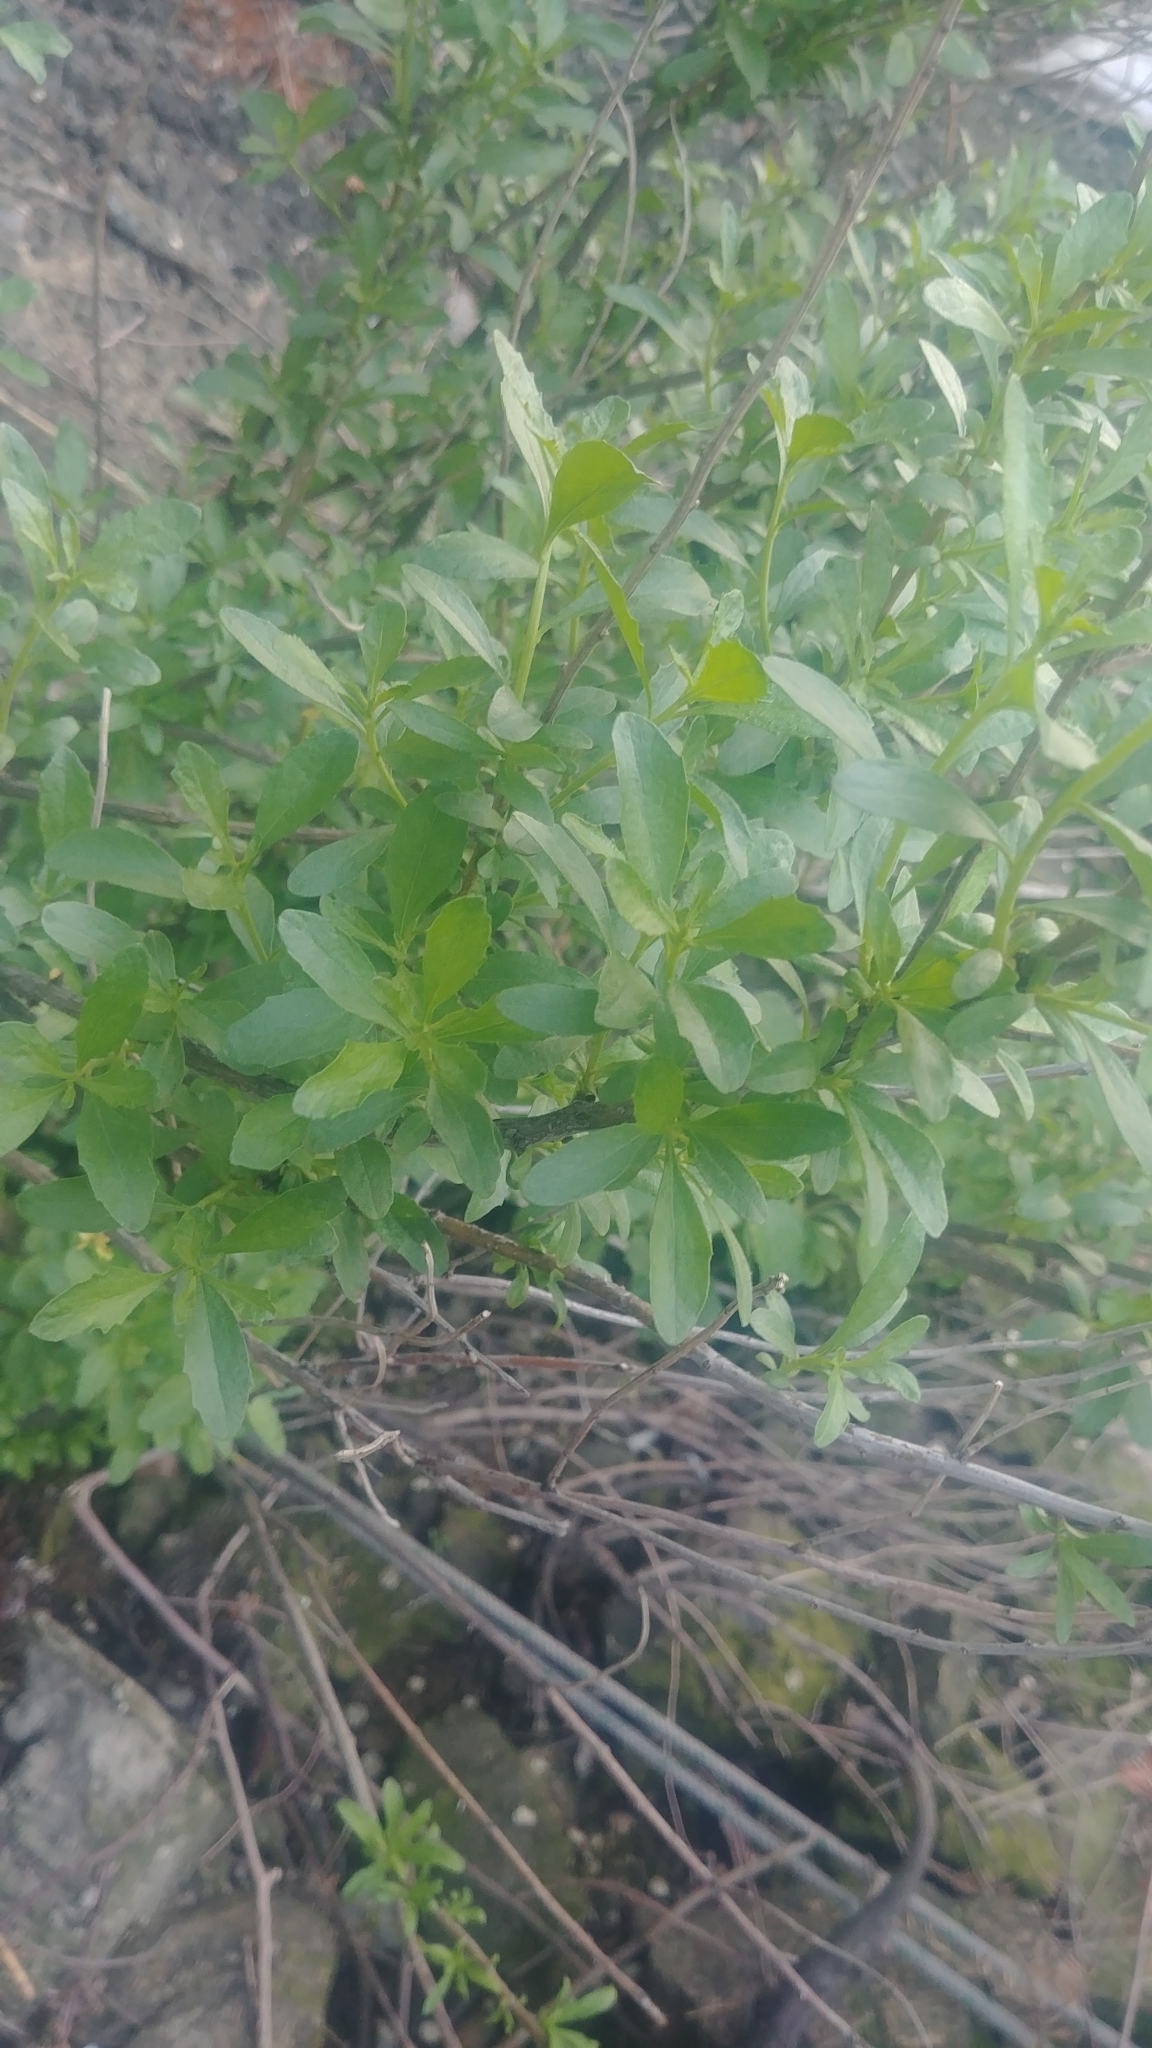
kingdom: Plantae
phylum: Tracheophyta
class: Magnoliopsida
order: Asterales
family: Asteraceae
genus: Baccharis
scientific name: Baccharis halimifolia
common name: Eastern baccharis
